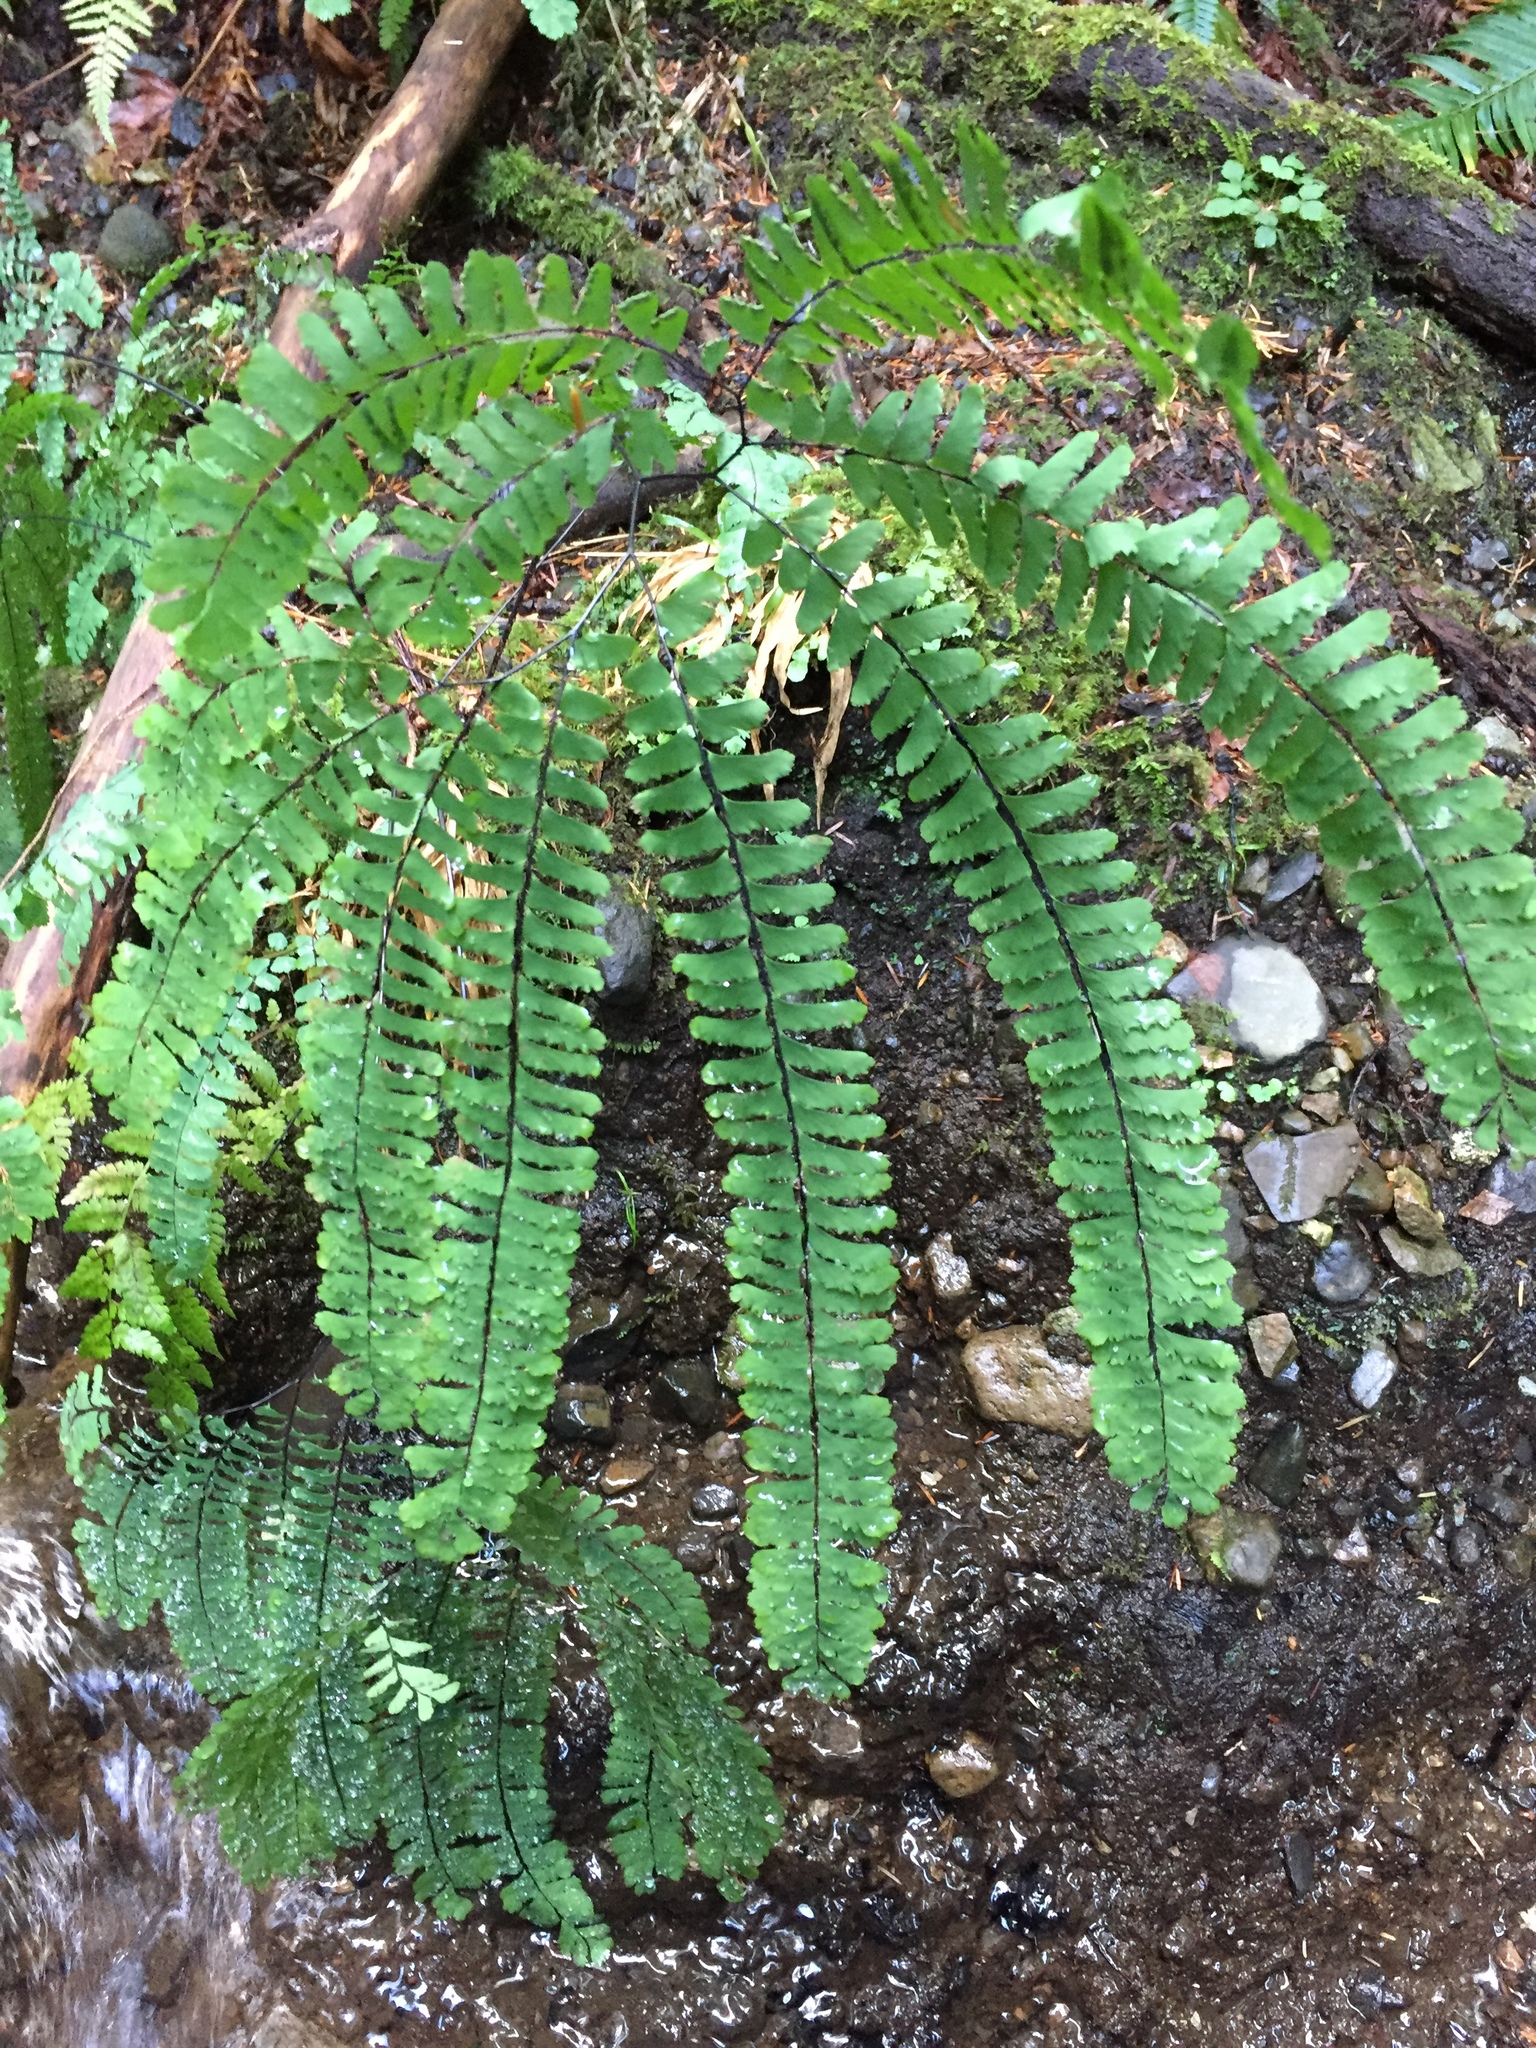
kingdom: Plantae
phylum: Tracheophyta
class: Polypodiopsida
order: Polypodiales
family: Pteridaceae
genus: Adiantum
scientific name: Adiantum aleuticum
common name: Aleutian maidenhair fern
